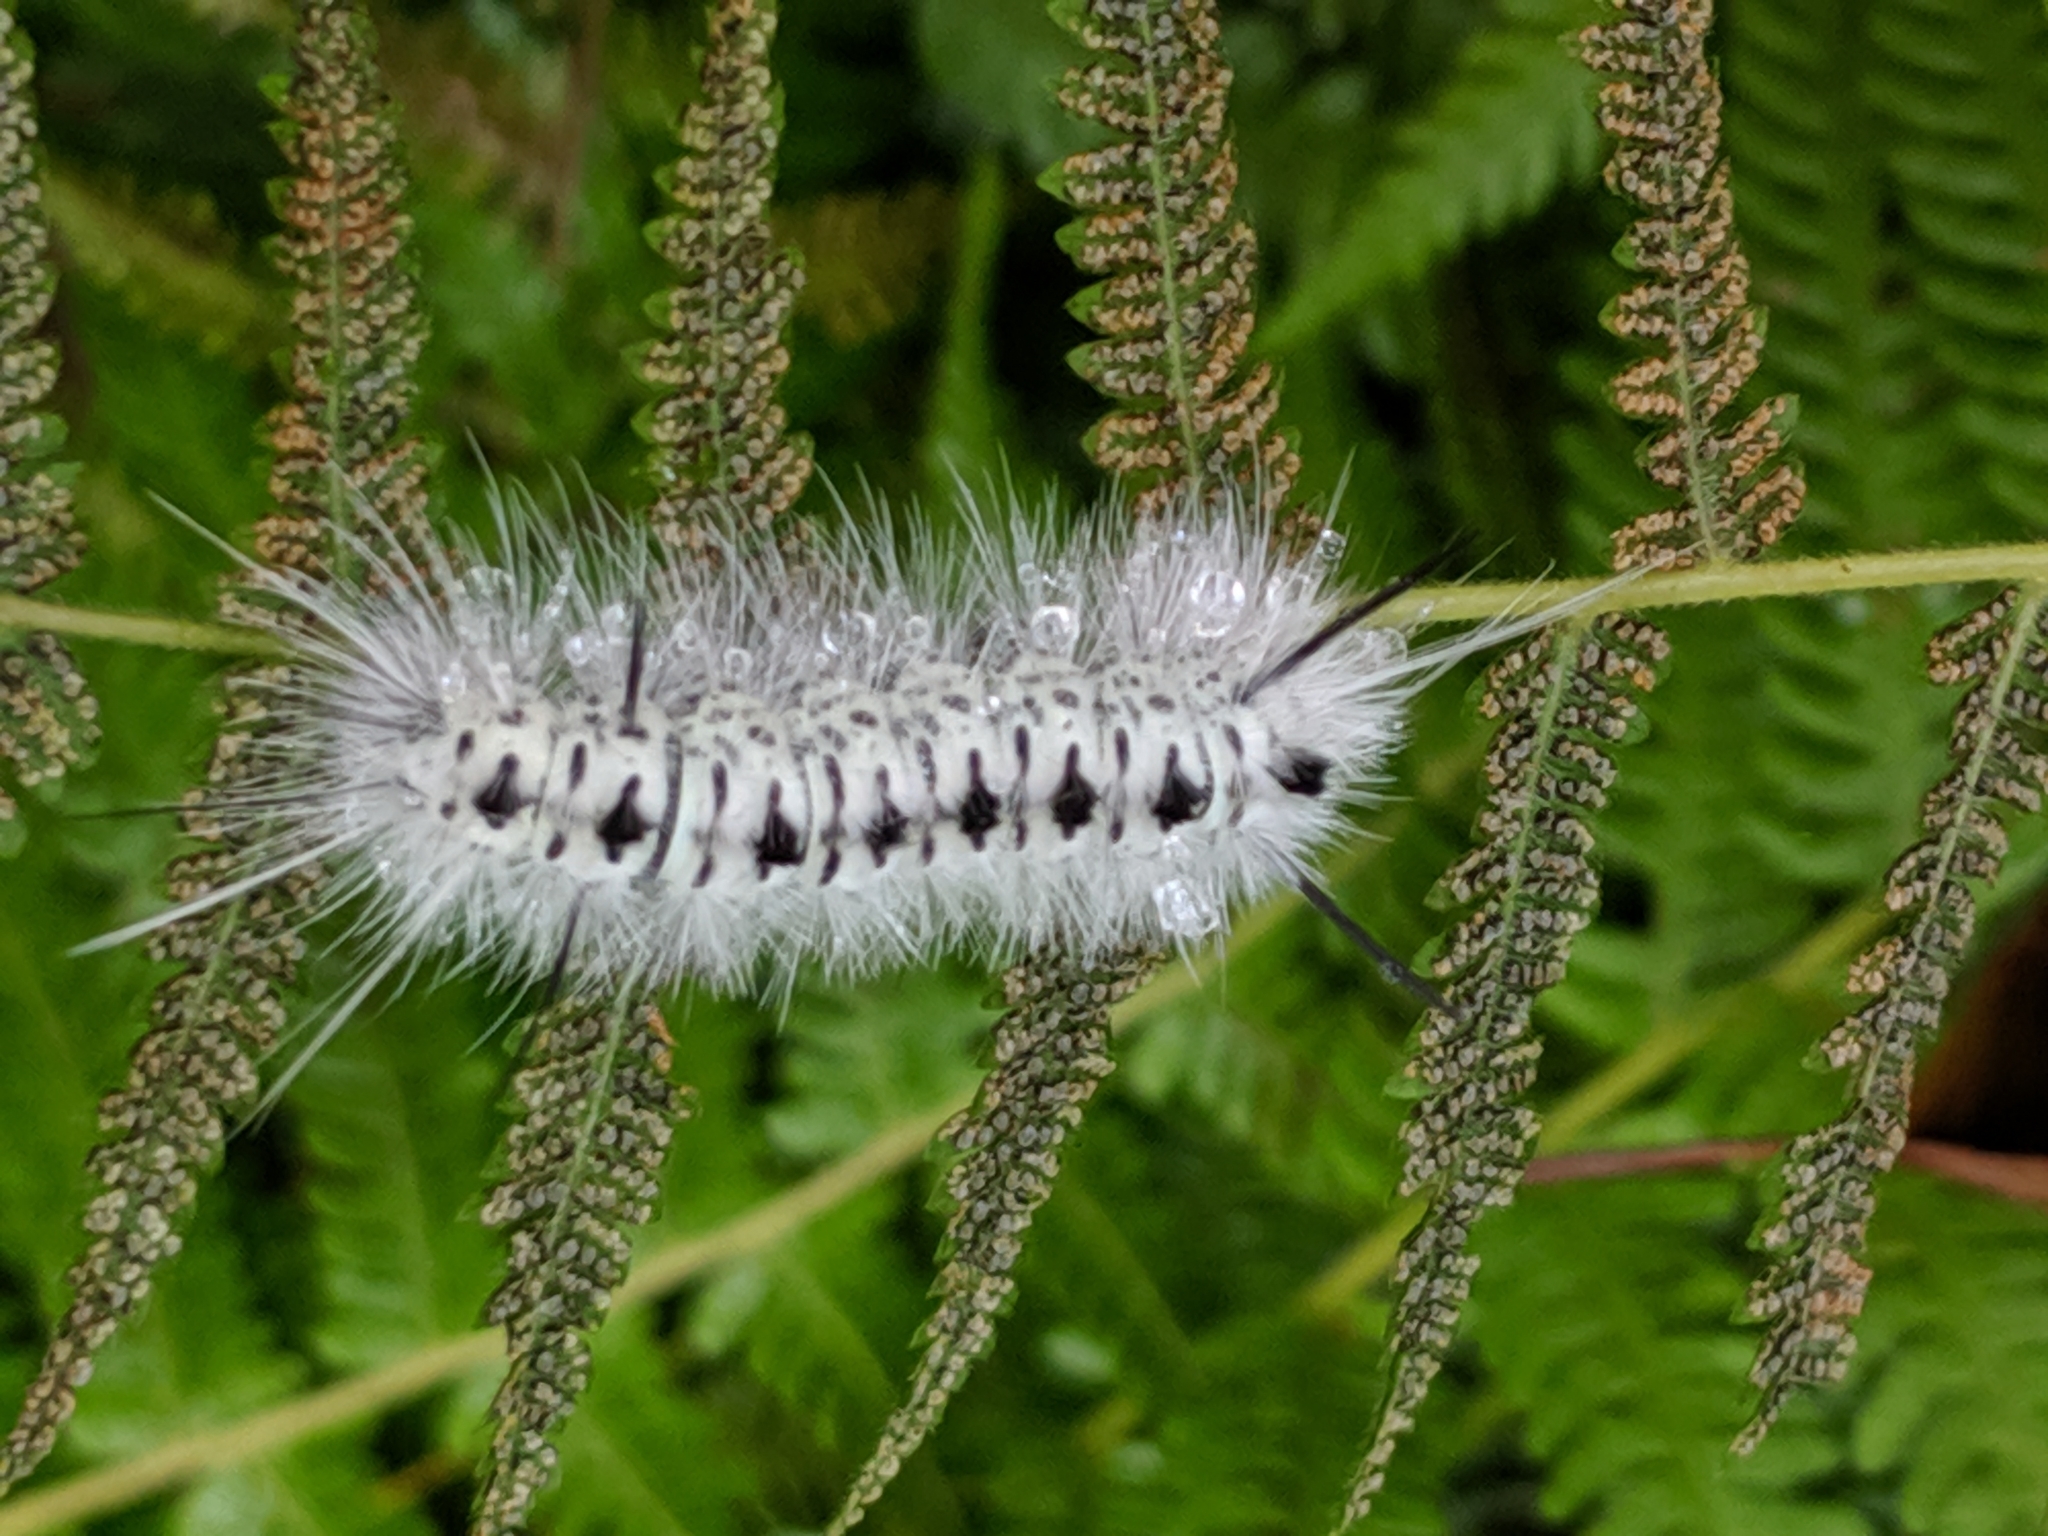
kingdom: Animalia
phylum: Arthropoda
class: Insecta
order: Lepidoptera
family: Erebidae
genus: Lophocampa
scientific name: Lophocampa caryae
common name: Hickory tussock moth
